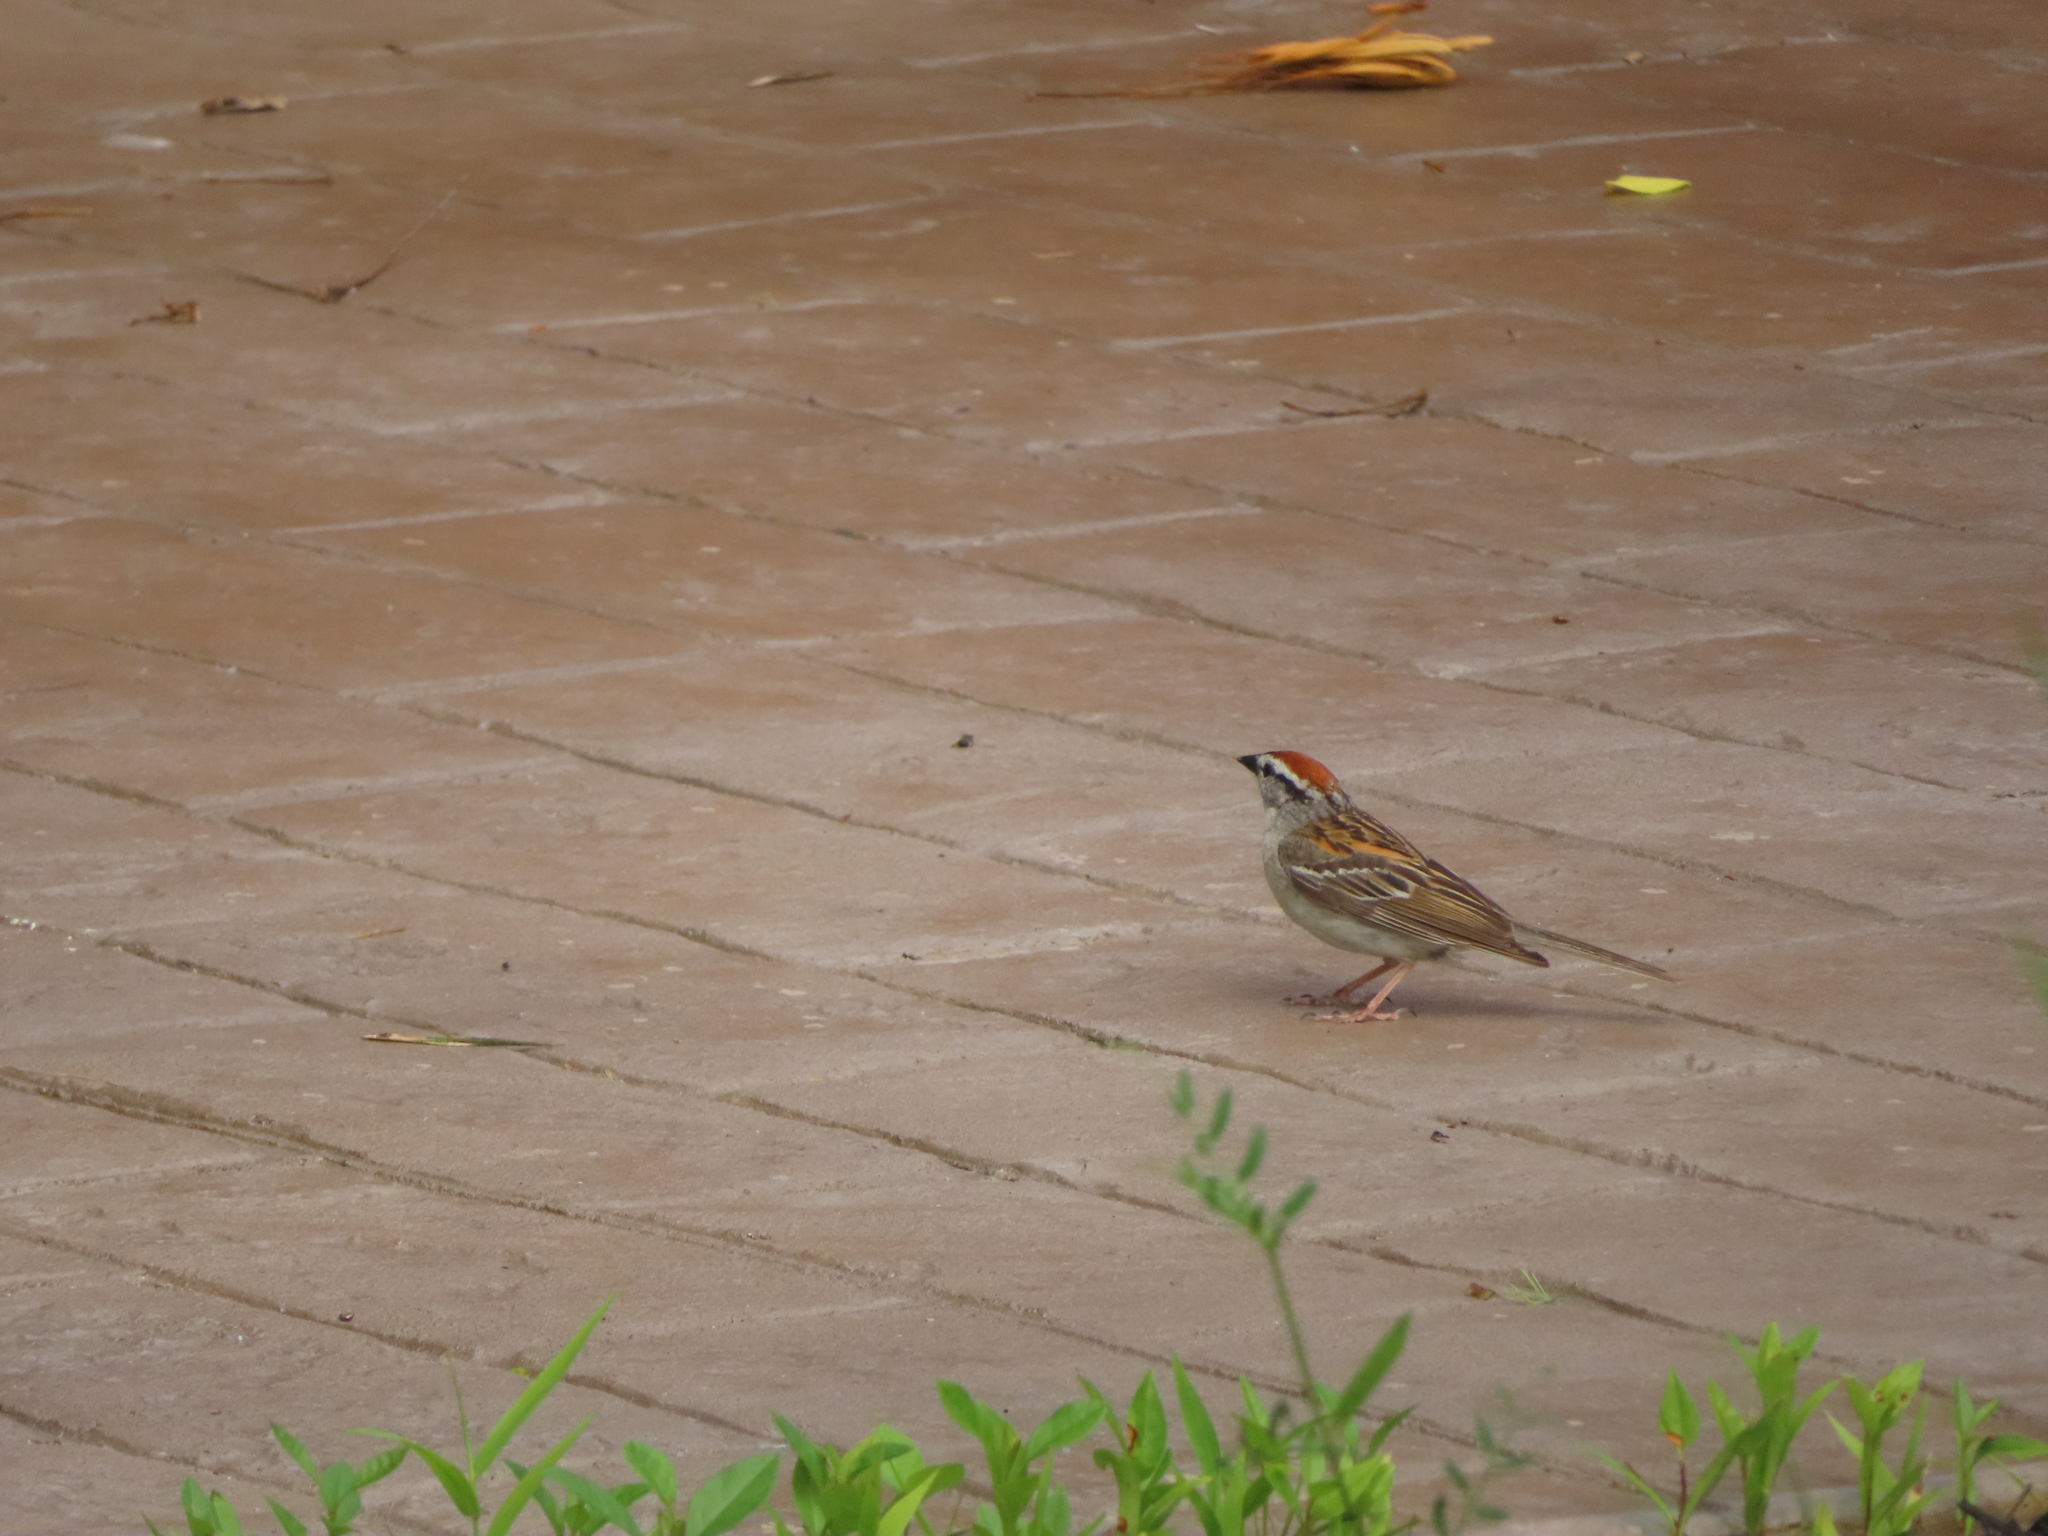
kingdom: Animalia
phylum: Chordata
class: Aves
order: Passeriformes
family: Passerellidae
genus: Spizella
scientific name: Spizella passerina
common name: Chipping sparrow
